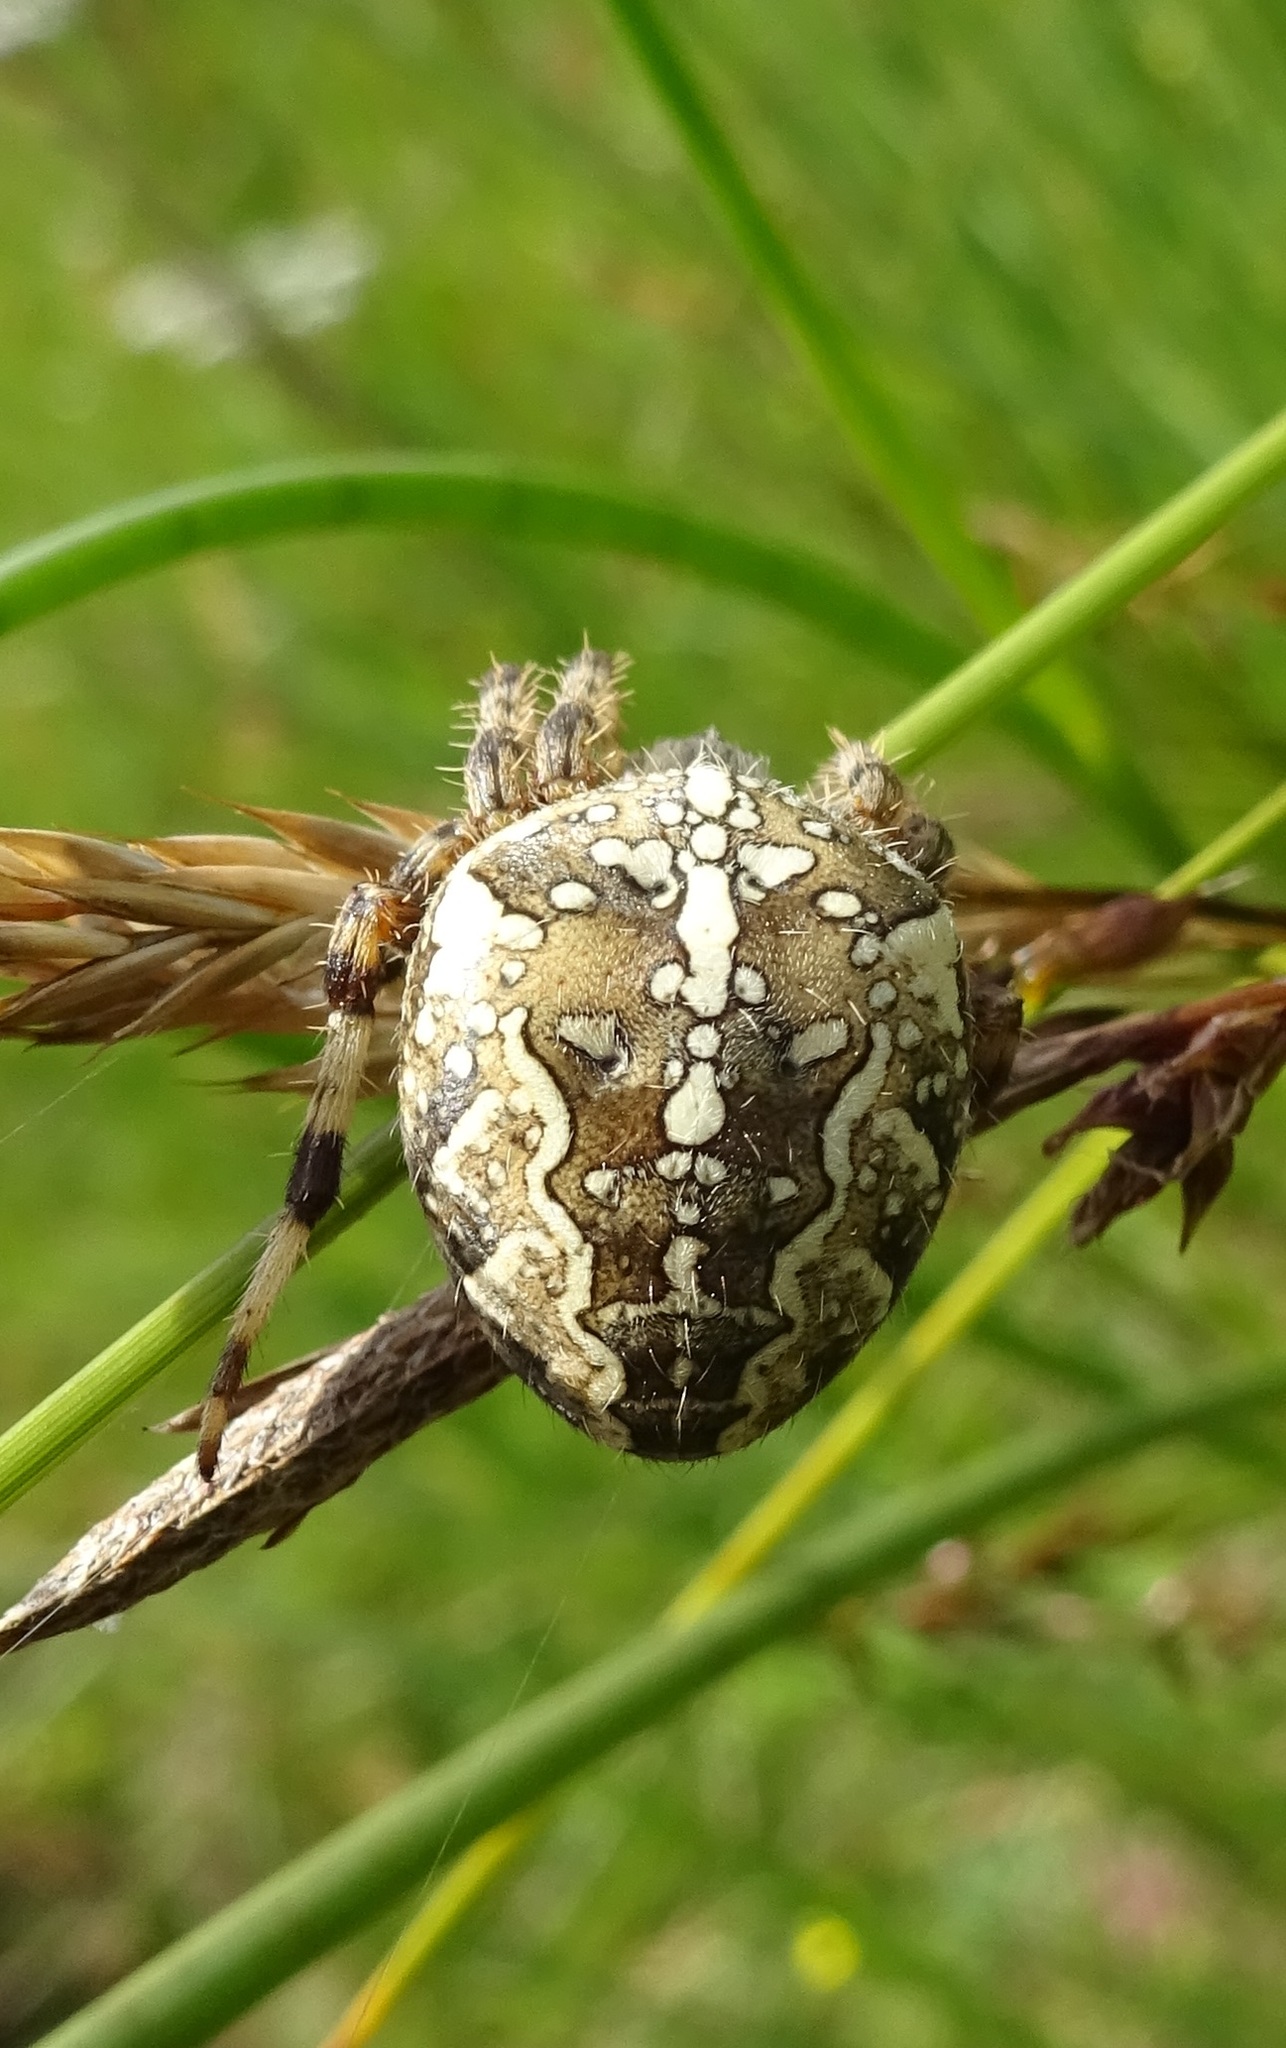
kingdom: Animalia
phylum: Arthropoda
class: Arachnida
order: Araneae
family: Araneidae
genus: Araneus
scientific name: Araneus diadematus
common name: Cross orbweaver
